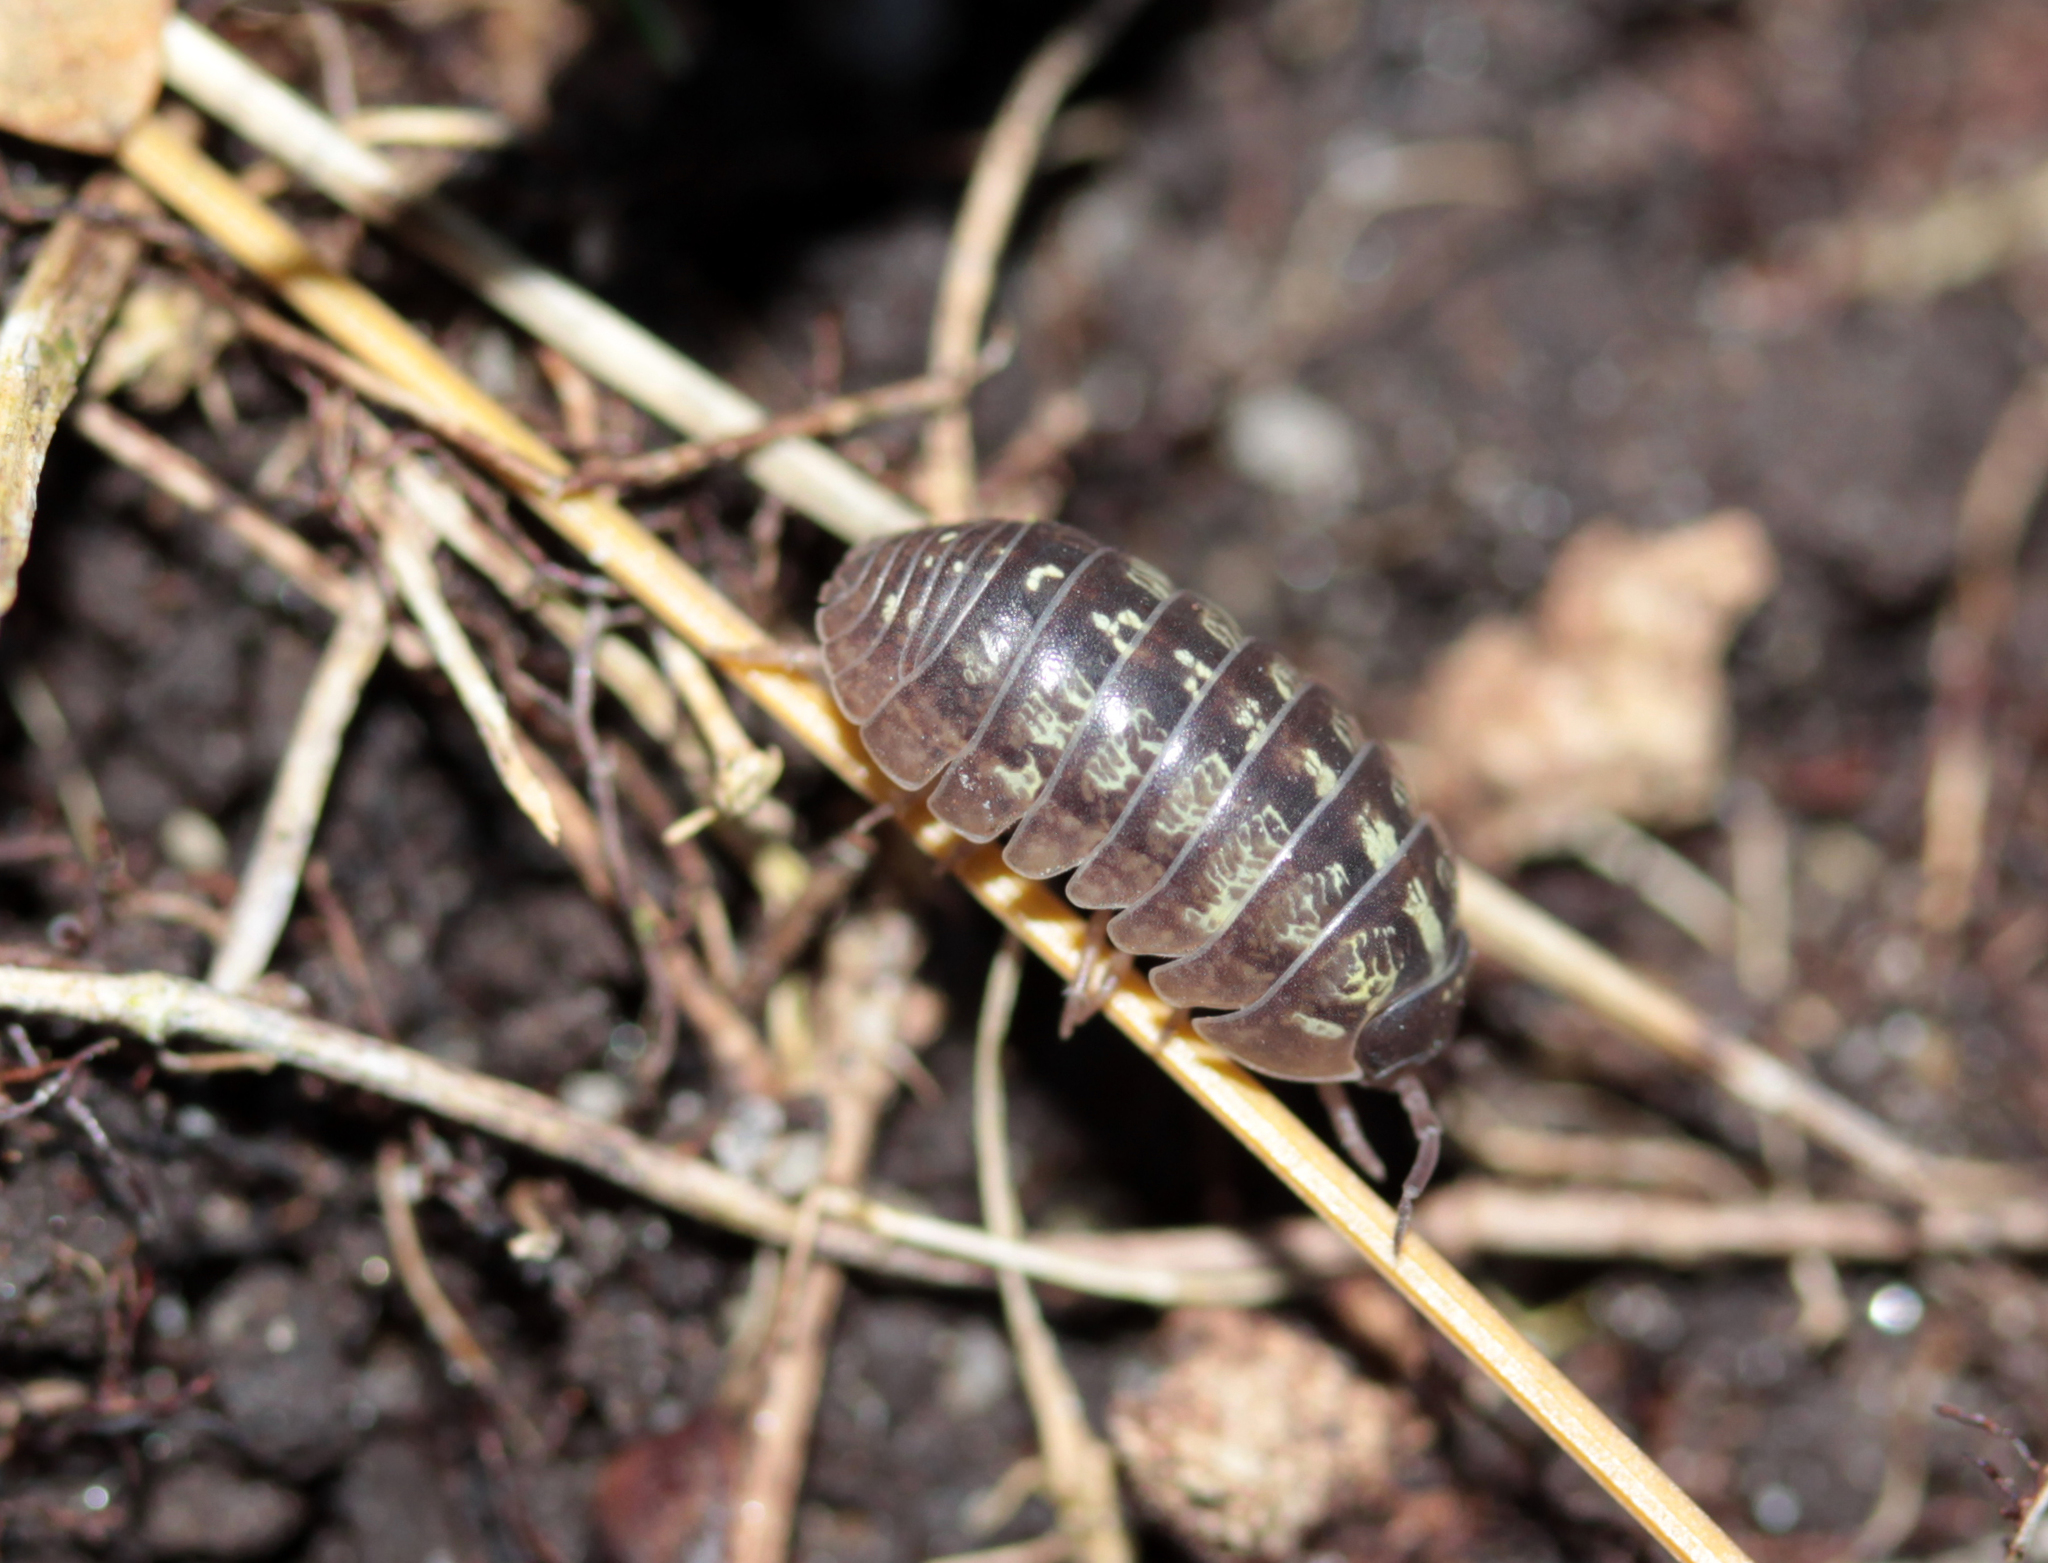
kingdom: Animalia
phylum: Arthropoda
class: Malacostraca
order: Isopoda
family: Armadillidiidae
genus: Armadillidium
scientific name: Armadillidium vulgare
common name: Common pill woodlouse
